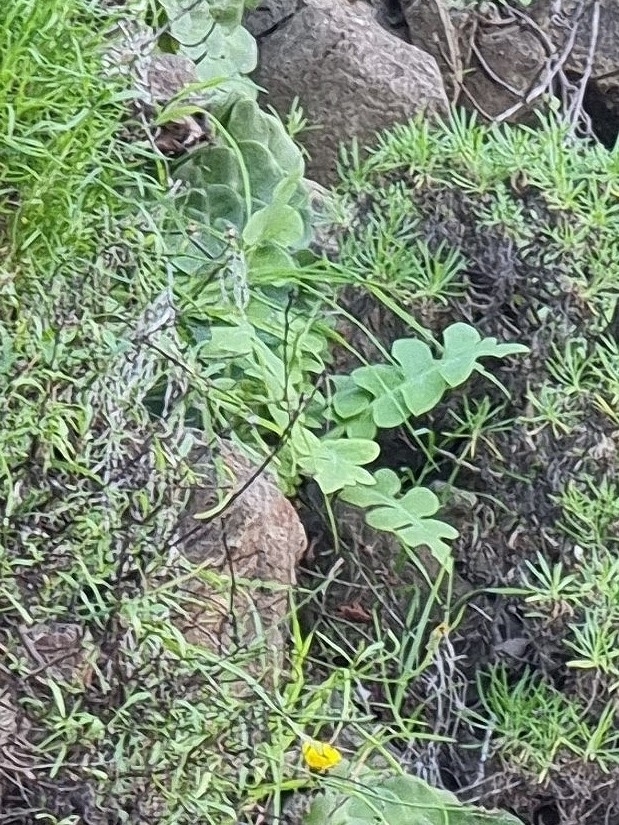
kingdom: Plantae
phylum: Tracheophyta
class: Magnoliopsida
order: Asterales
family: Asteraceae
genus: Sonchus
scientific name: Sonchus latifolius
